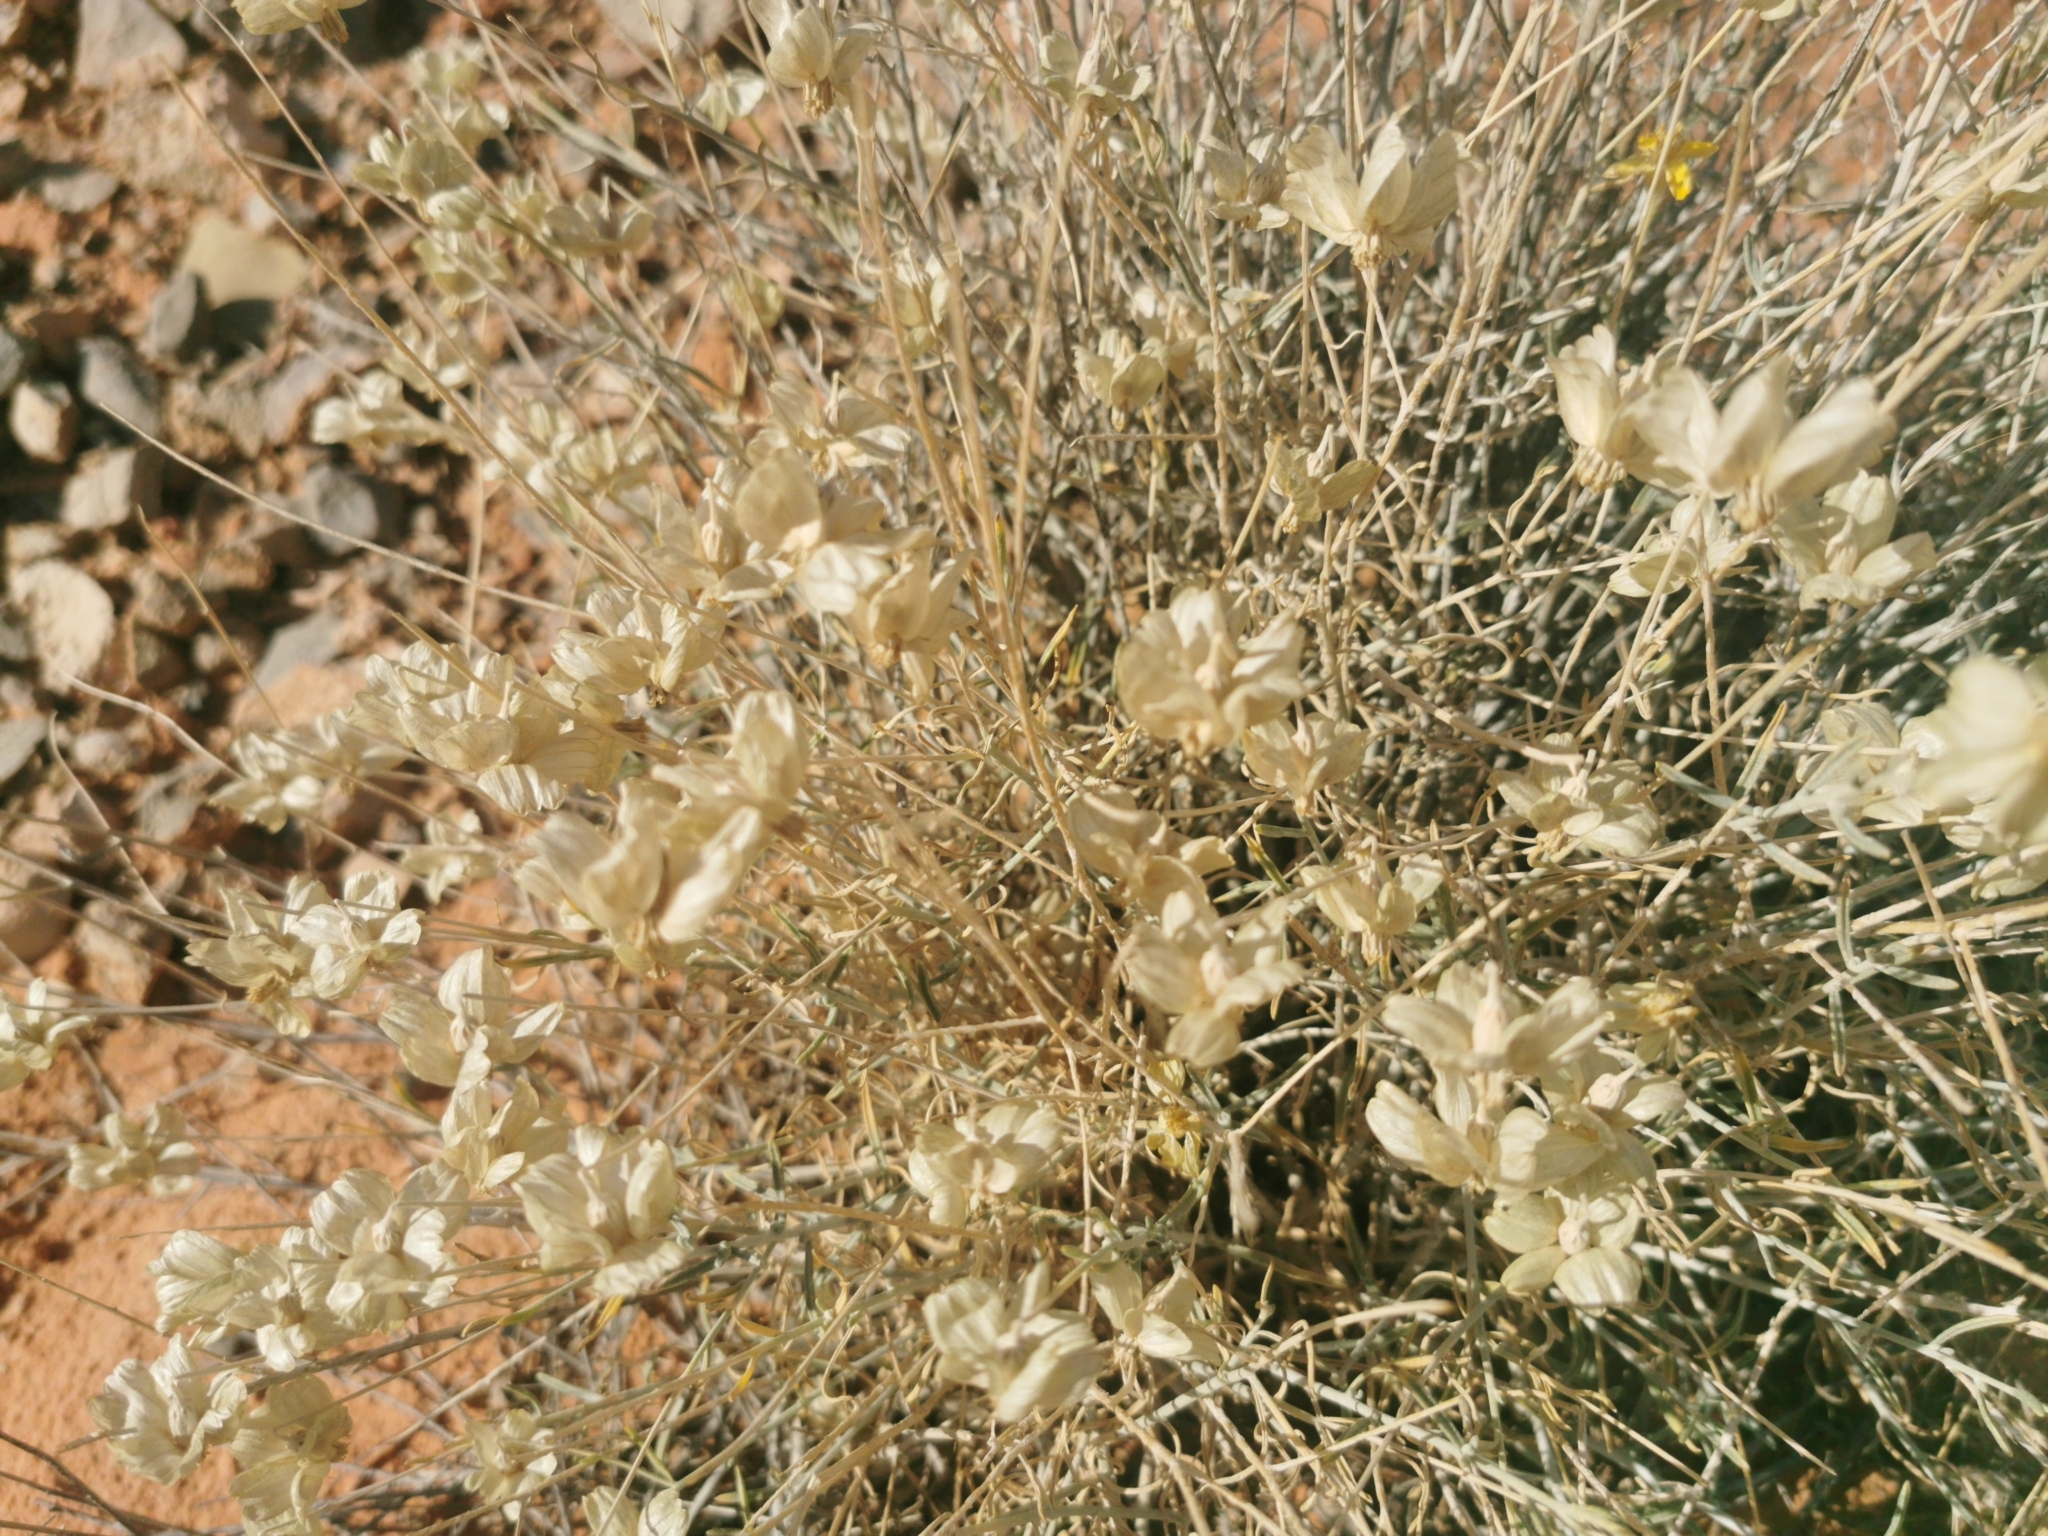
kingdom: Plantae
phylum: Tracheophyta
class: Magnoliopsida
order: Asterales
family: Asteraceae
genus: Psilostrophe
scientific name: Psilostrophe cooperi
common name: White-stem paper-flower
